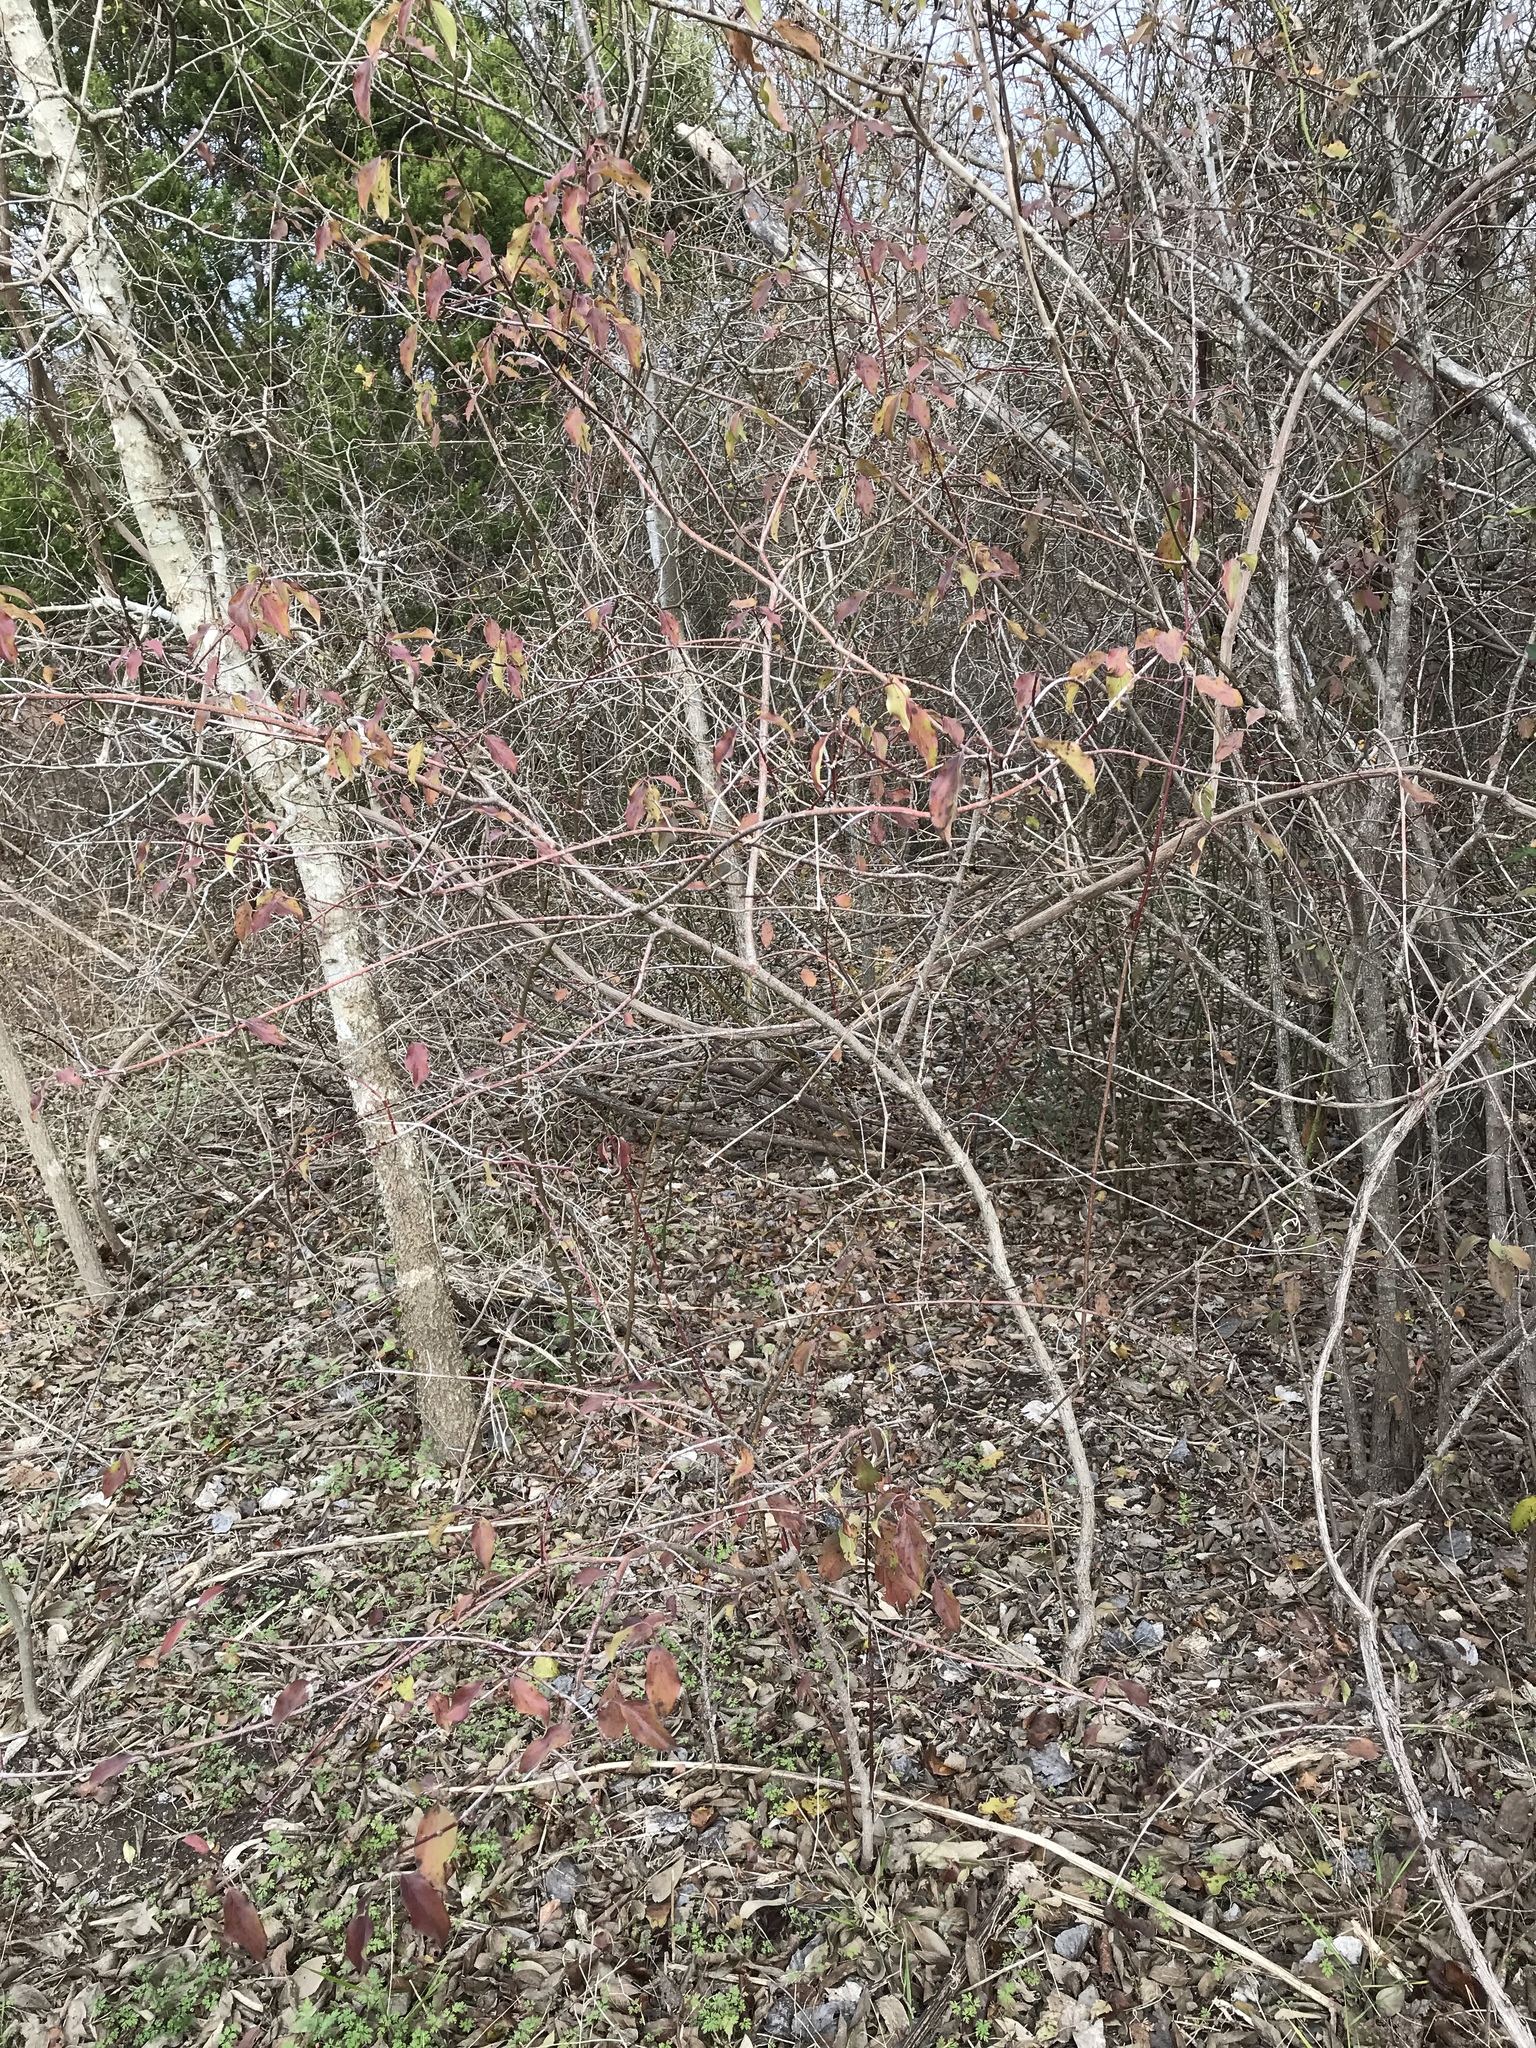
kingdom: Plantae
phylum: Tracheophyta
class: Magnoliopsida
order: Cornales
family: Cornaceae
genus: Cornus
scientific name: Cornus drummondii
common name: Rough-leaf dogwood
